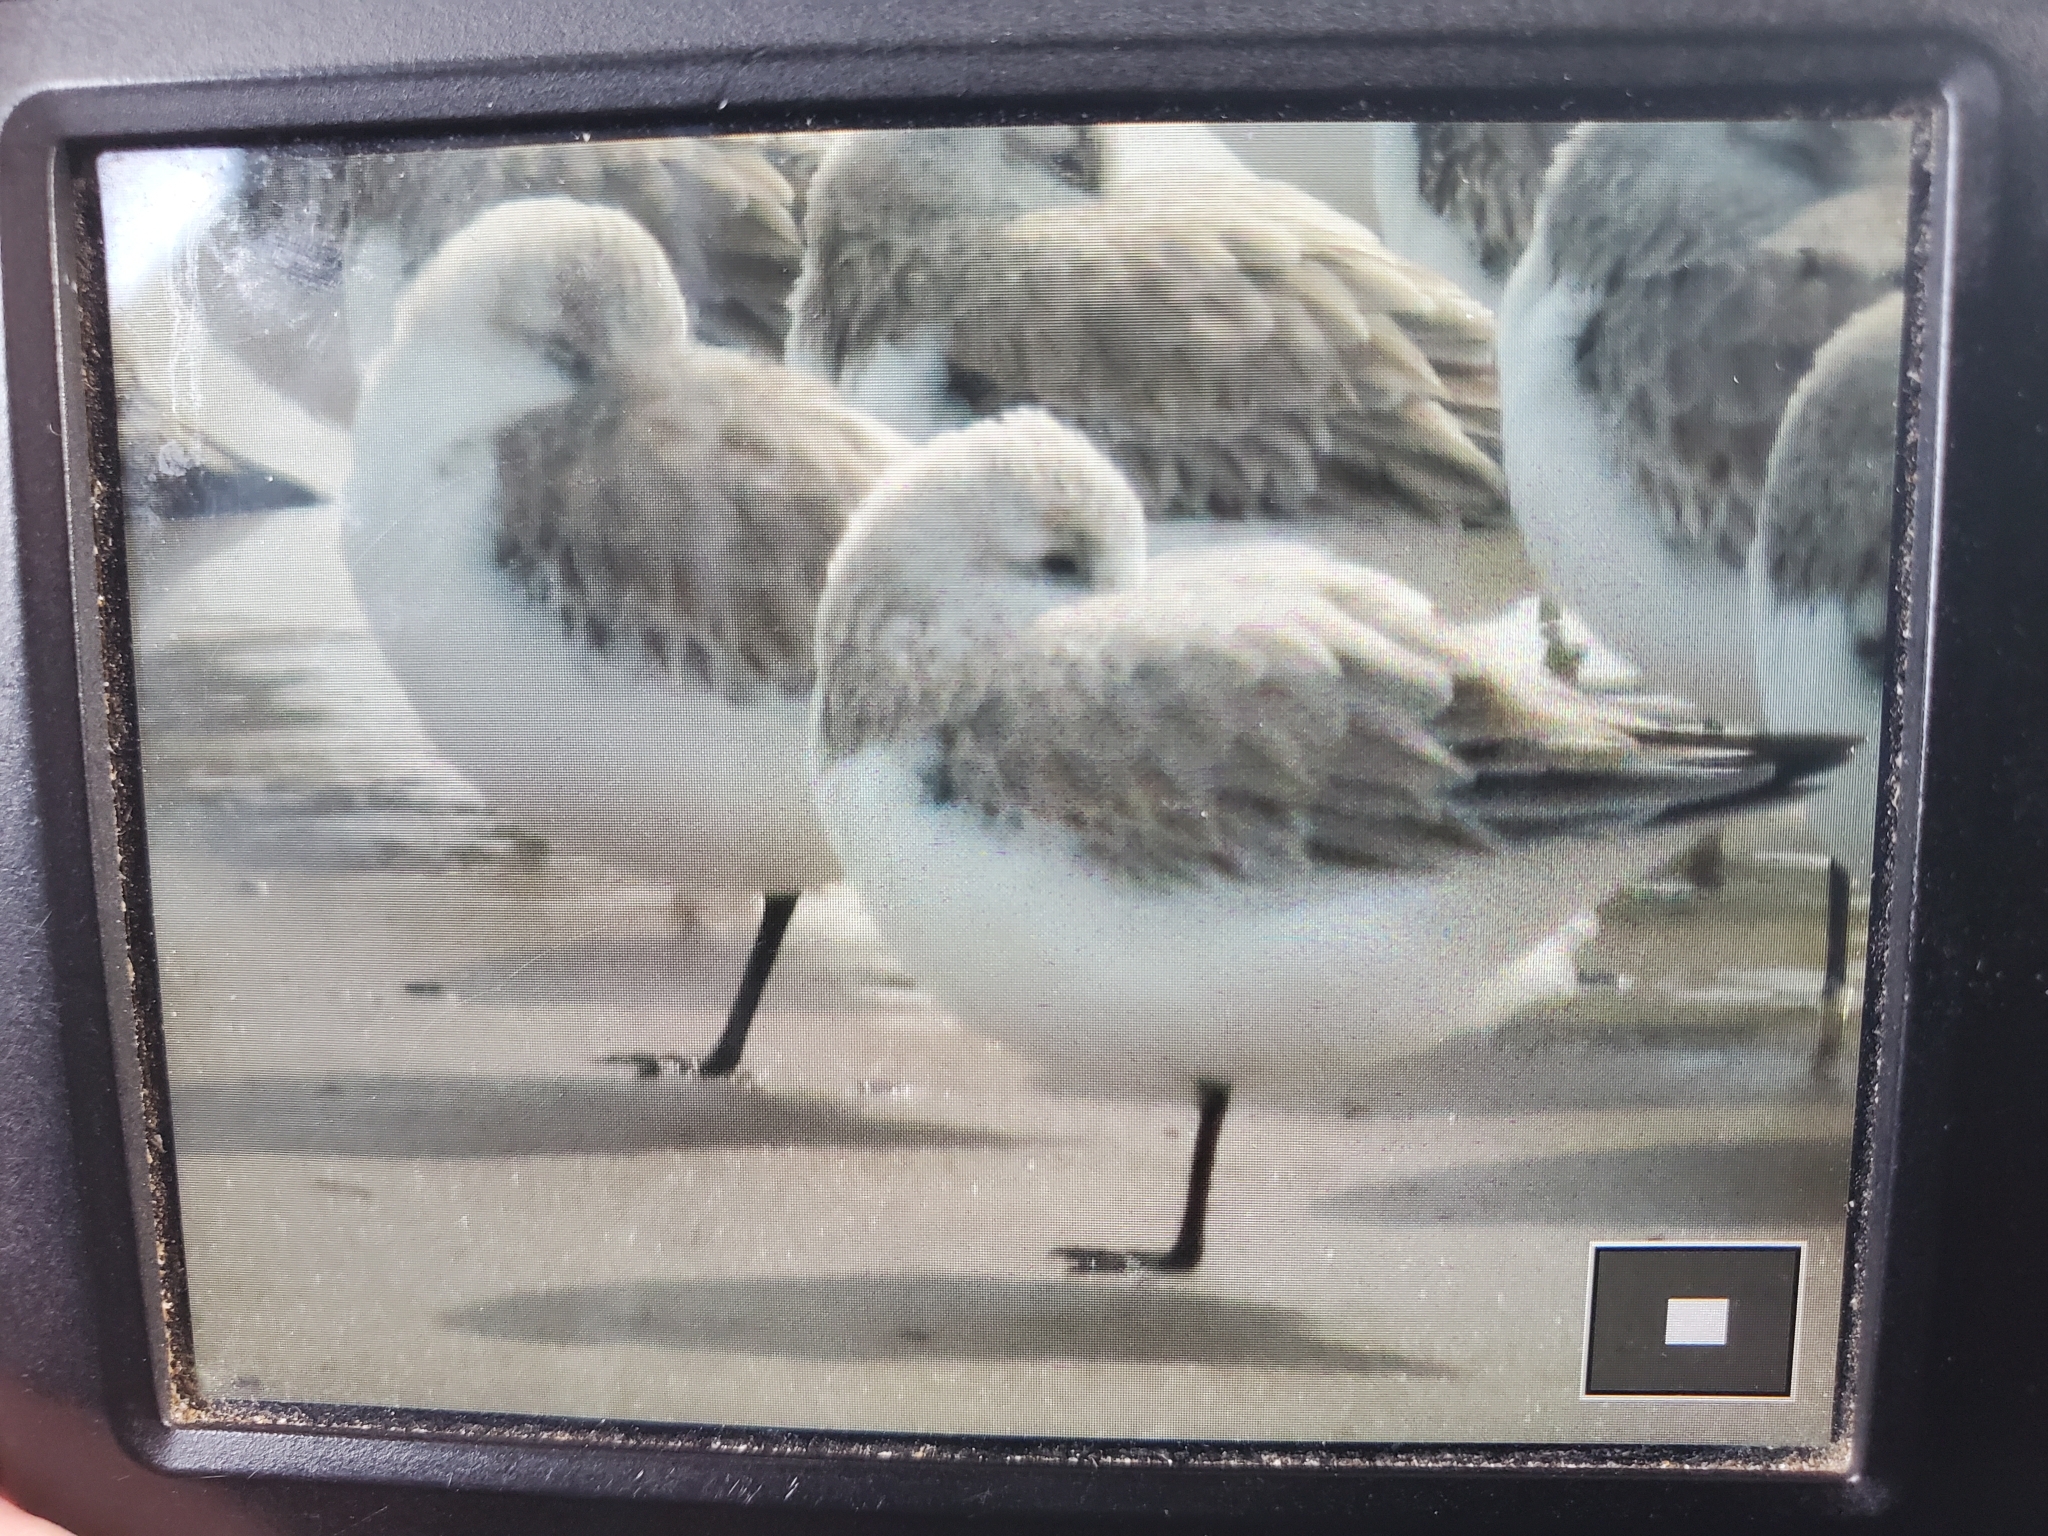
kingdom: Animalia
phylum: Chordata
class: Aves
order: Charadriiformes
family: Scolopacidae
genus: Calidris
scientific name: Calidris alba
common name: Sanderling
